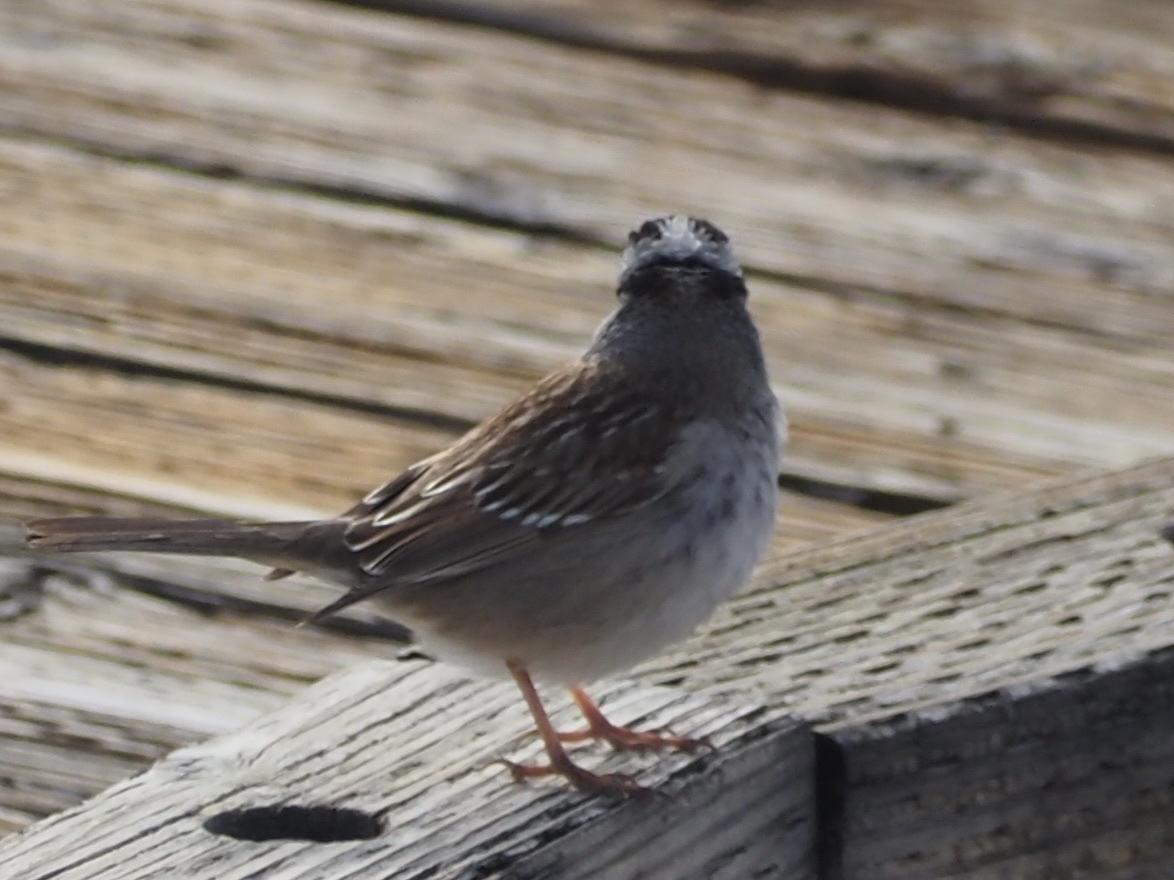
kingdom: Animalia
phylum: Chordata
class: Aves
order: Passeriformes
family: Passerellidae
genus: Zonotrichia
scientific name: Zonotrichia leucophrys
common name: White-crowned sparrow
